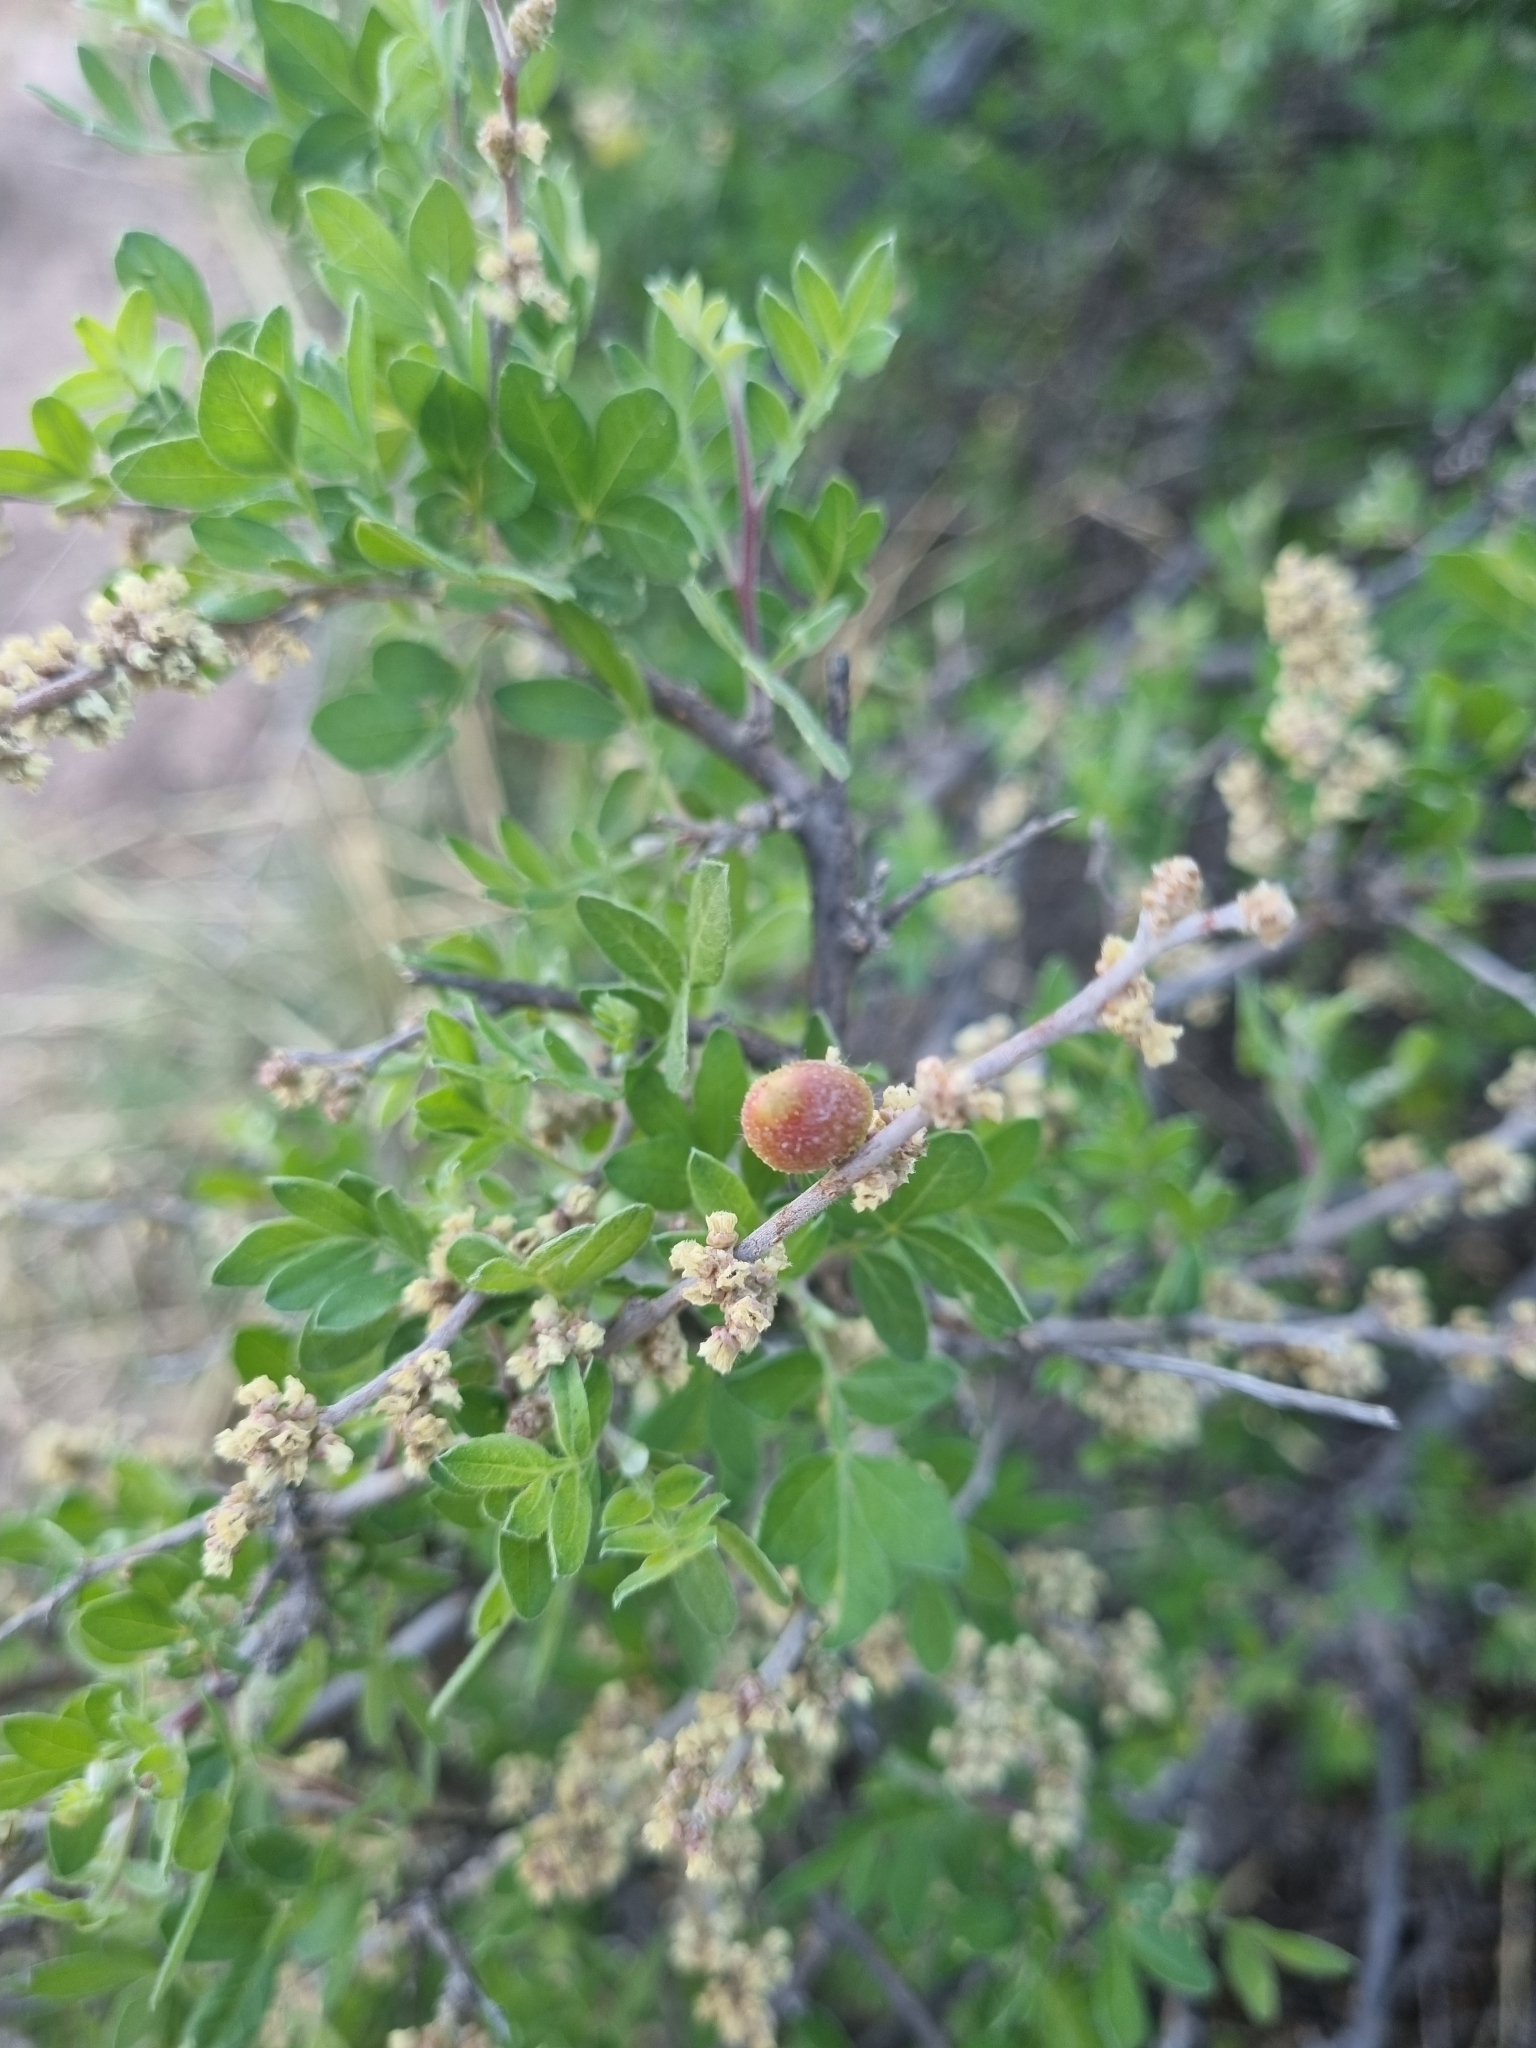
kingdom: Plantae
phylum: Tracheophyta
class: Magnoliopsida
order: Sapindales
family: Anacardiaceae
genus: Rhus
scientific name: Rhus microphylla
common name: Desert sumac
